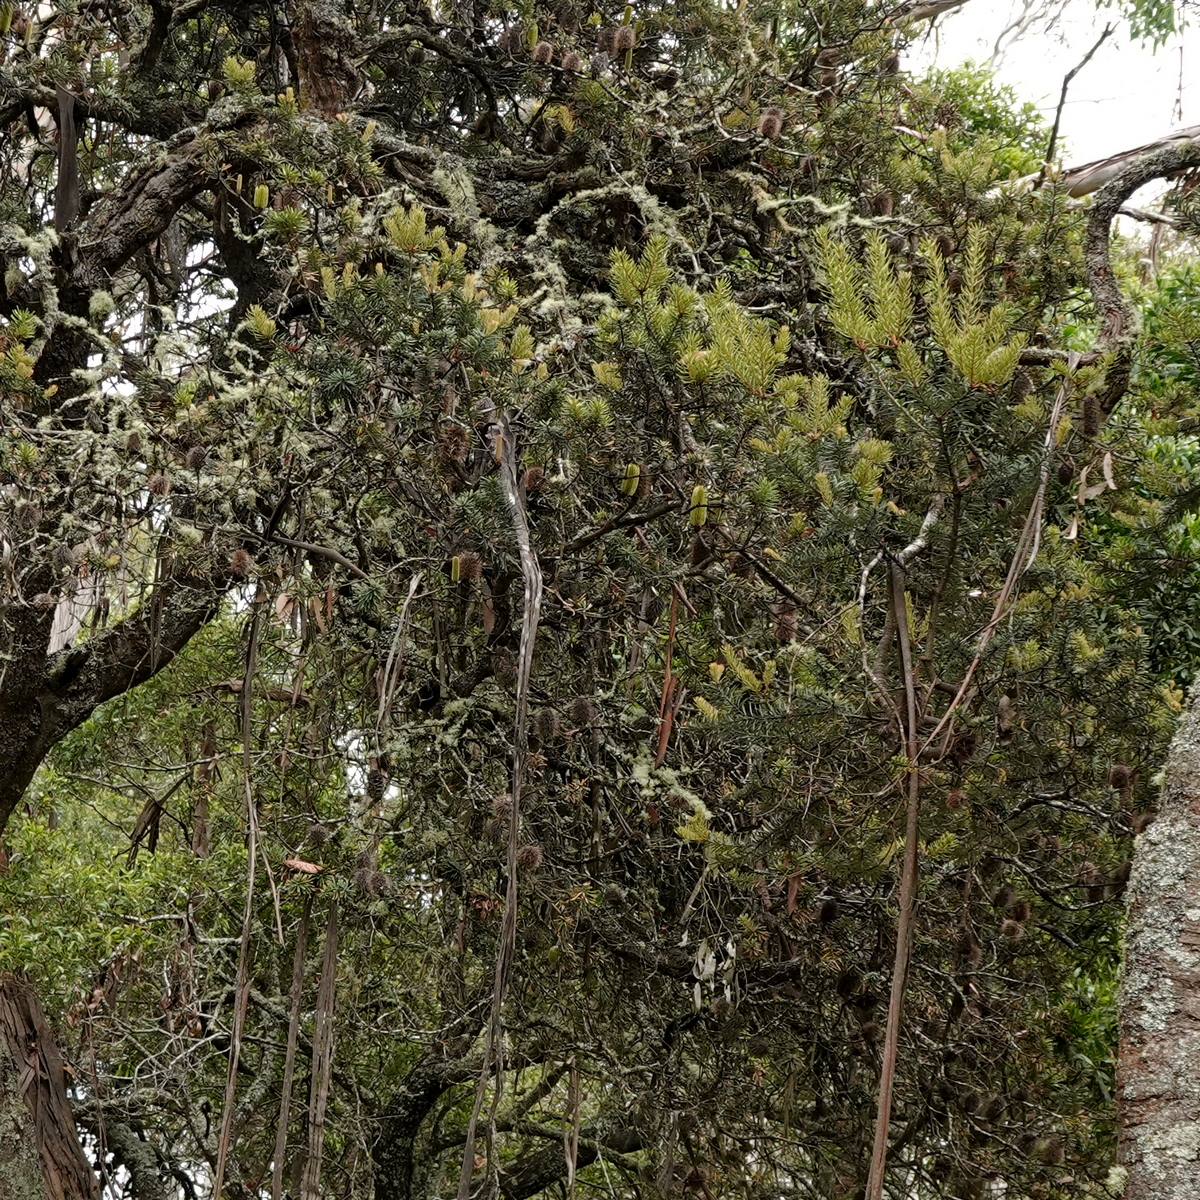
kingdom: Plantae
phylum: Tracheophyta
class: Magnoliopsida
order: Proteales
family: Proteaceae
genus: Banksia
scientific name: Banksia marginata
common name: Silver banksia
